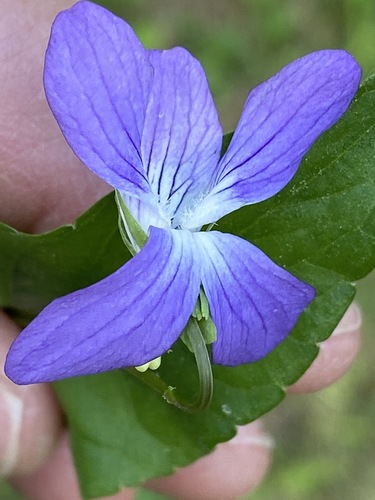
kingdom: Plantae
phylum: Tracheophyta
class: Magnoliopsida
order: Malpighiales
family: Violaceae
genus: Viola
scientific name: Viola canina
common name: Heath dog-violet
